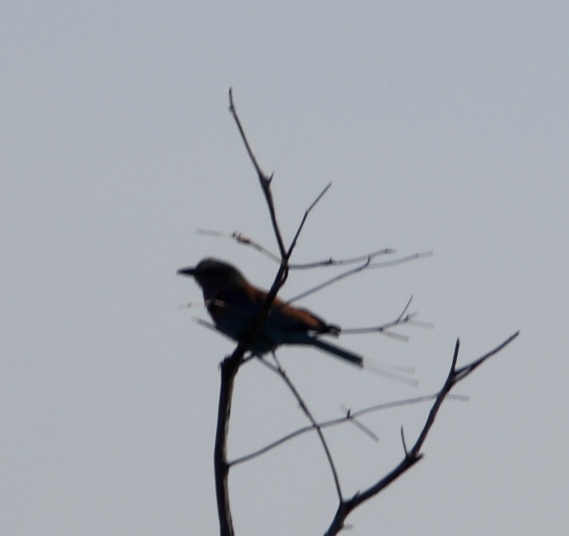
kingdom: Animalia
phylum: Chordata
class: Aves
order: Coraciiformes
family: Coraciidae
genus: Coracias
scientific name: Coracias caudatus
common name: Lilac-breasted roller
